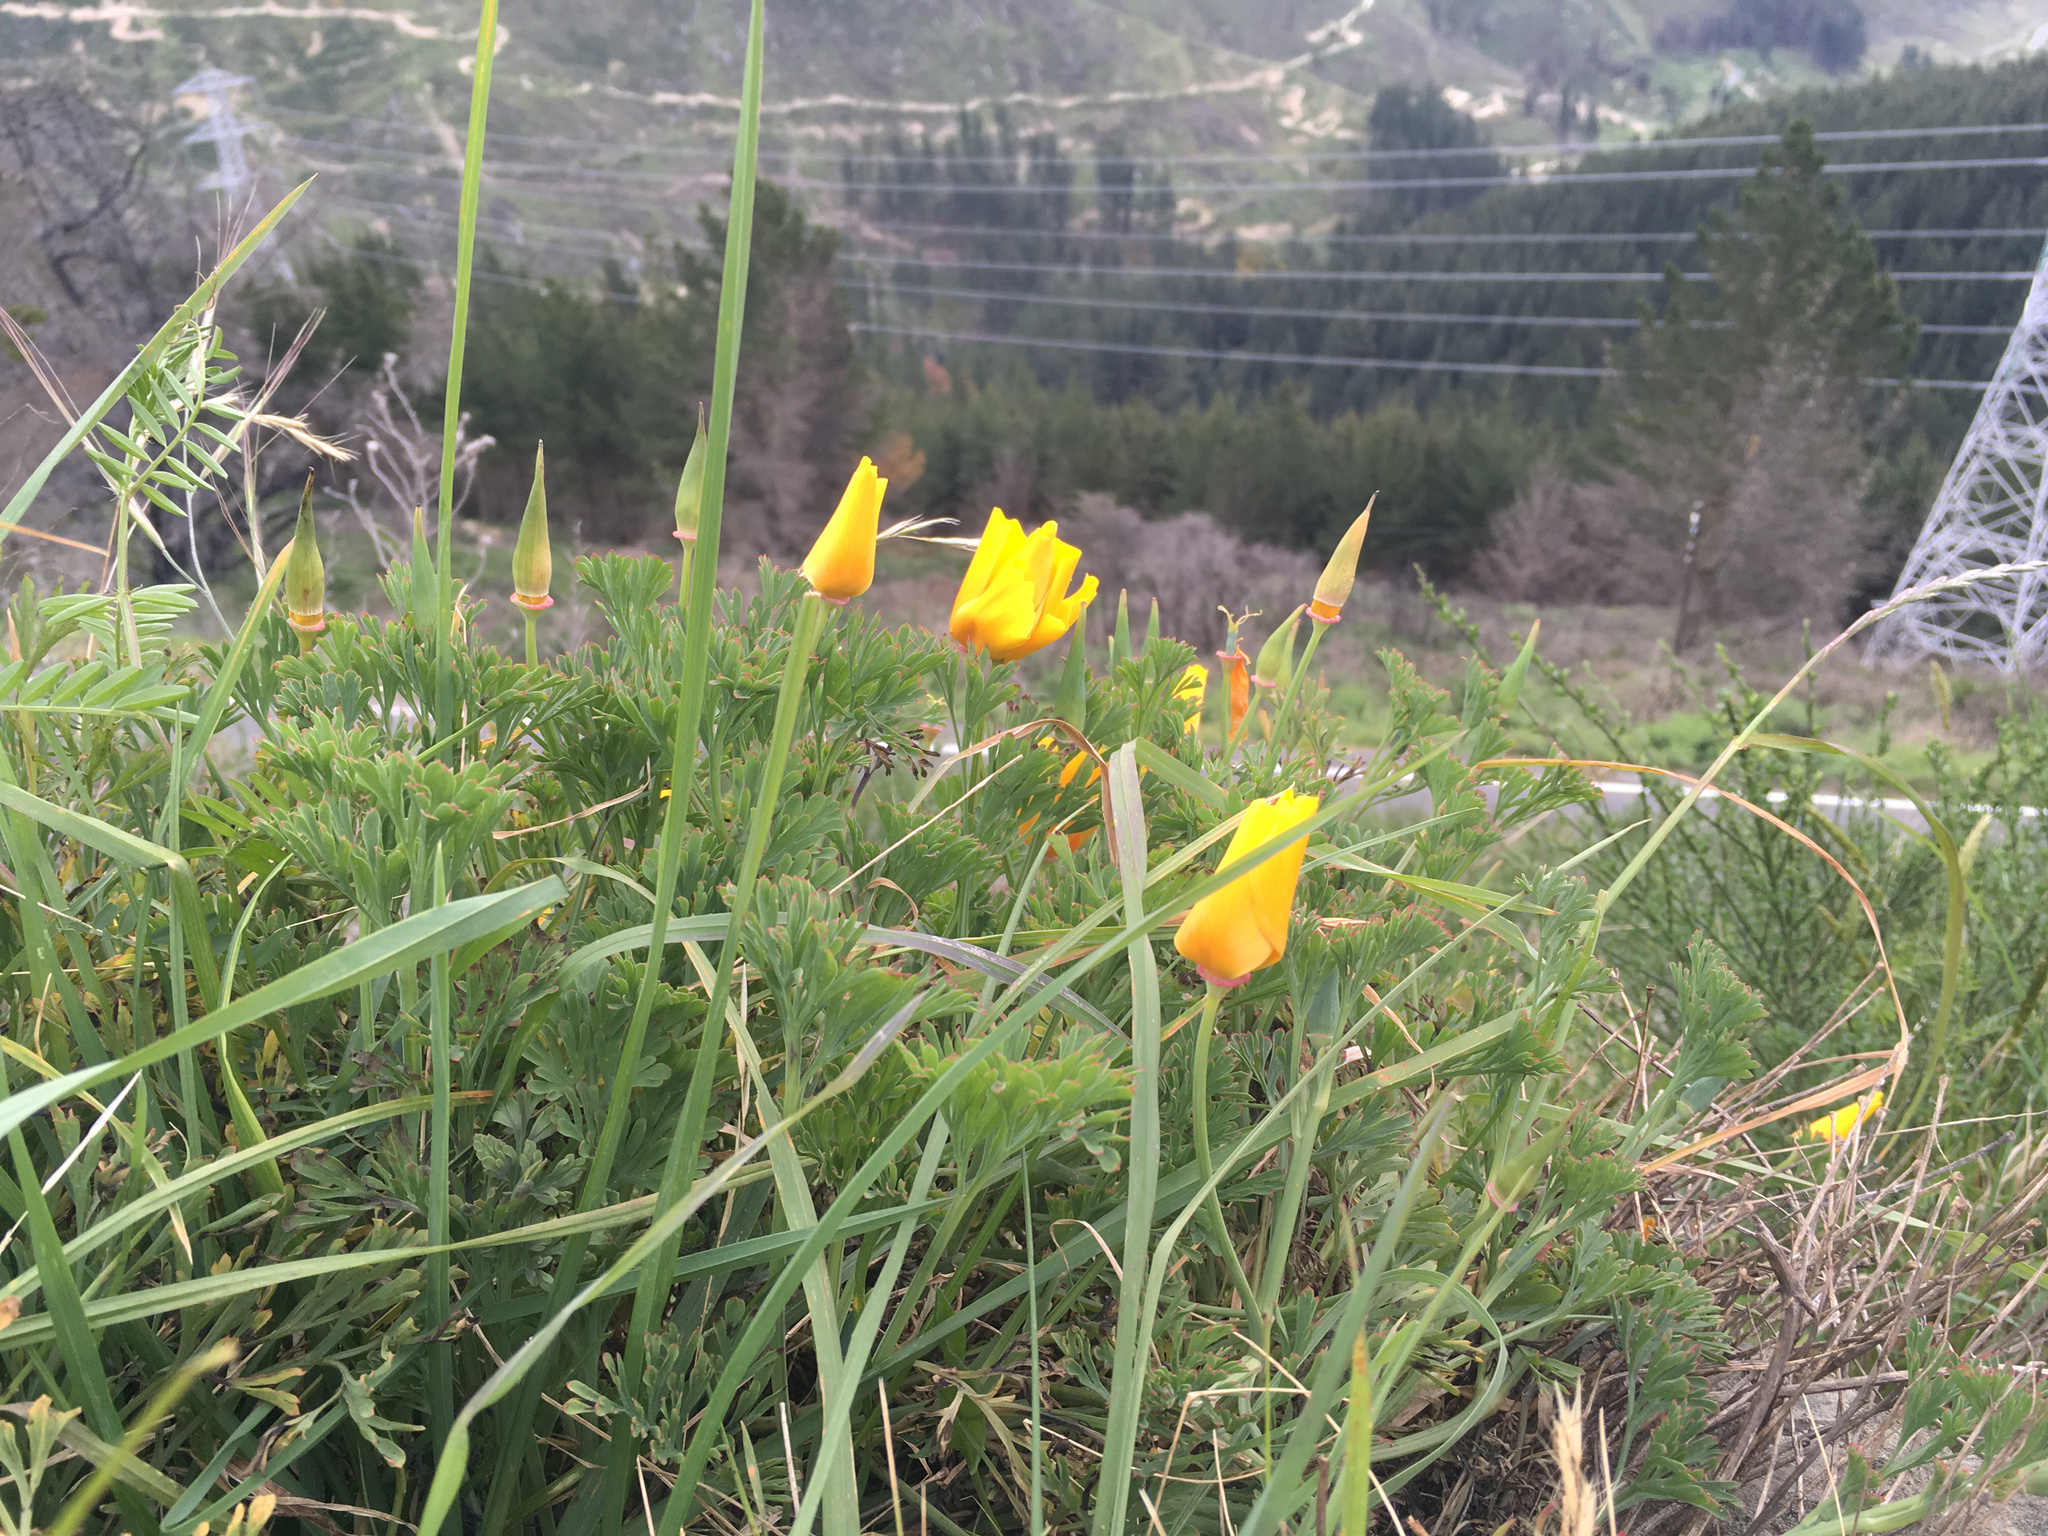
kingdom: Plantae
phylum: Tracheophyta
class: Magnoliopsida
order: Ranunculales
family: Papaveraceae
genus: Eschscholzia
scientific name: Eschscholzia californica
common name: California poppy
